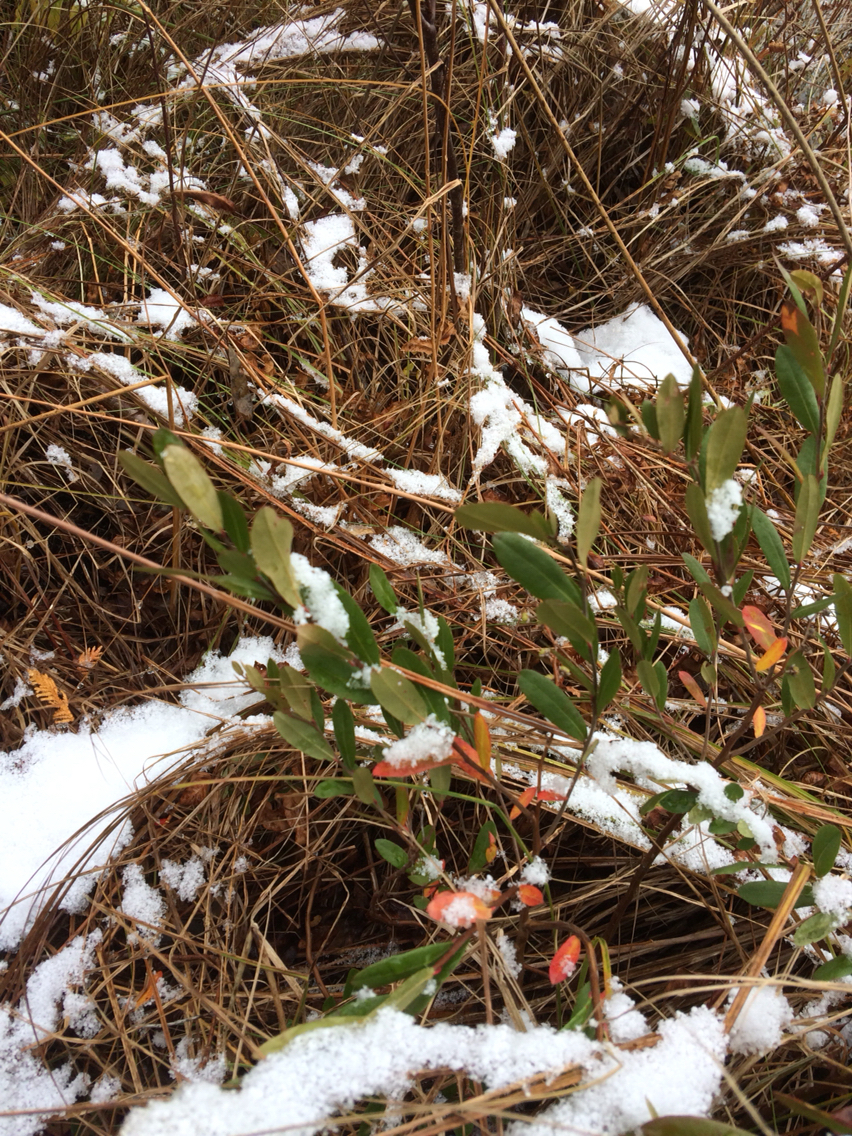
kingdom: Plantae
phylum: Tracheophyta
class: Magnoliopsida
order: Ericales
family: Ericaceae
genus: Chamaedaphne
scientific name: Chamaedaphne calyculata
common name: Leatherleaf
